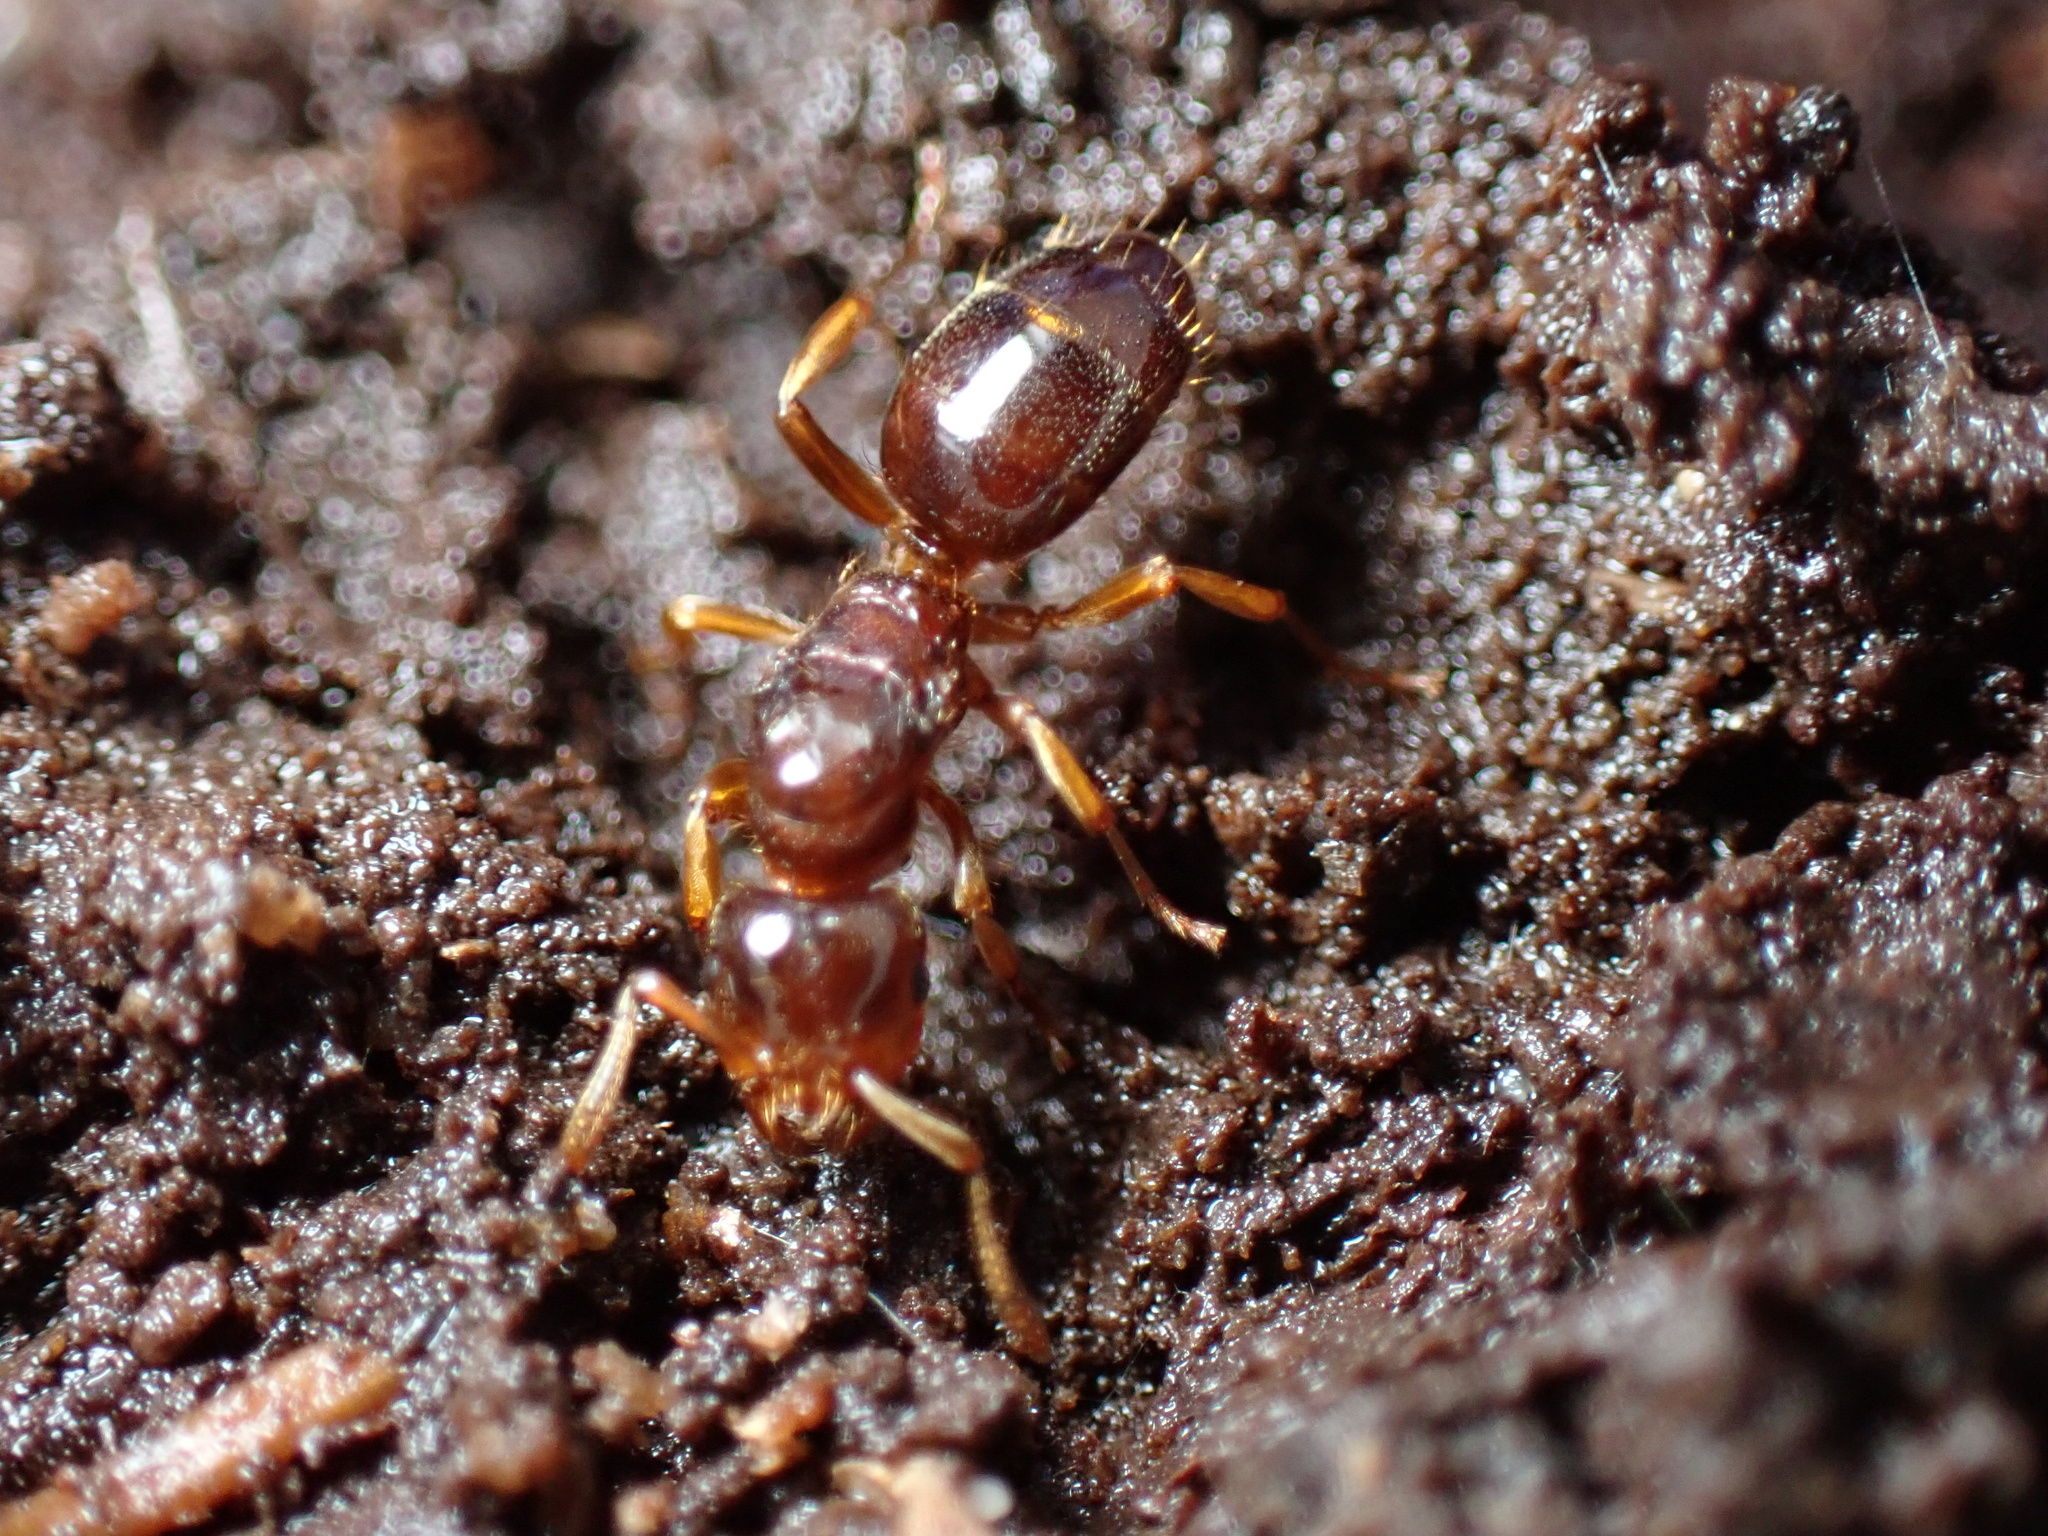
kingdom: Animalia
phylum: Arthropoda
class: Insecta
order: Hymenoptera
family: Formicidae
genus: Lasius
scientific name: Lasius claviger
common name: Common citronella ant
